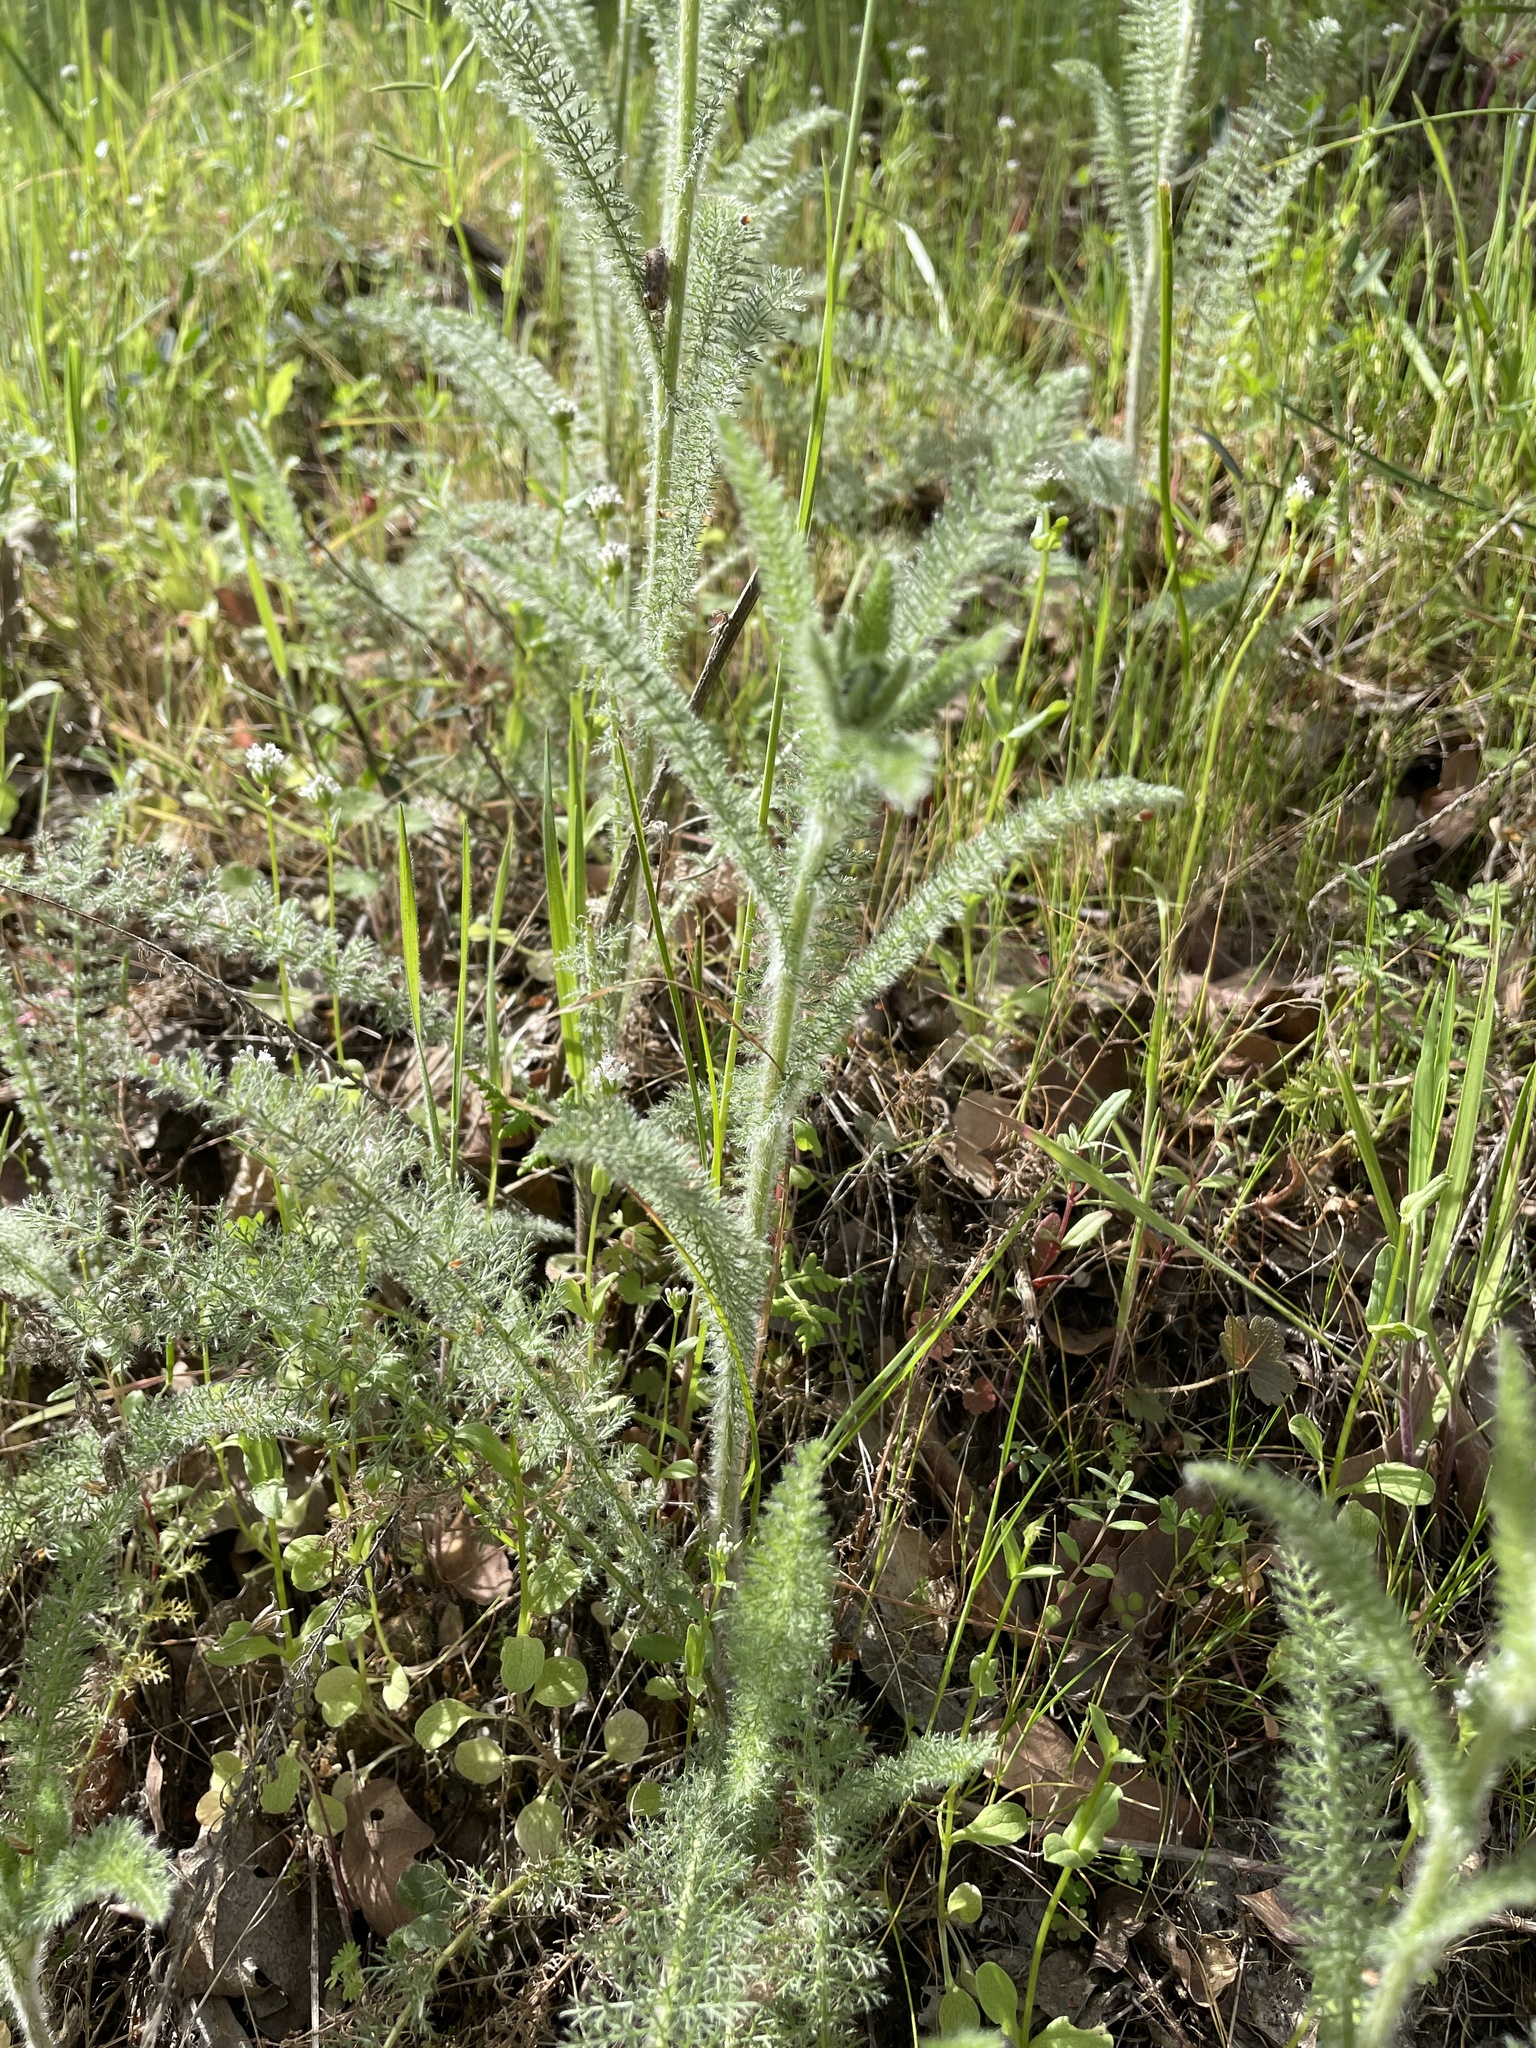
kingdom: Plantae
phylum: Tracheophyta
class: Magnoliopsida
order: Asterales
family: Asteraceae
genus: Achillea
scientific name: Achillea millefolium
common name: Yarrow
